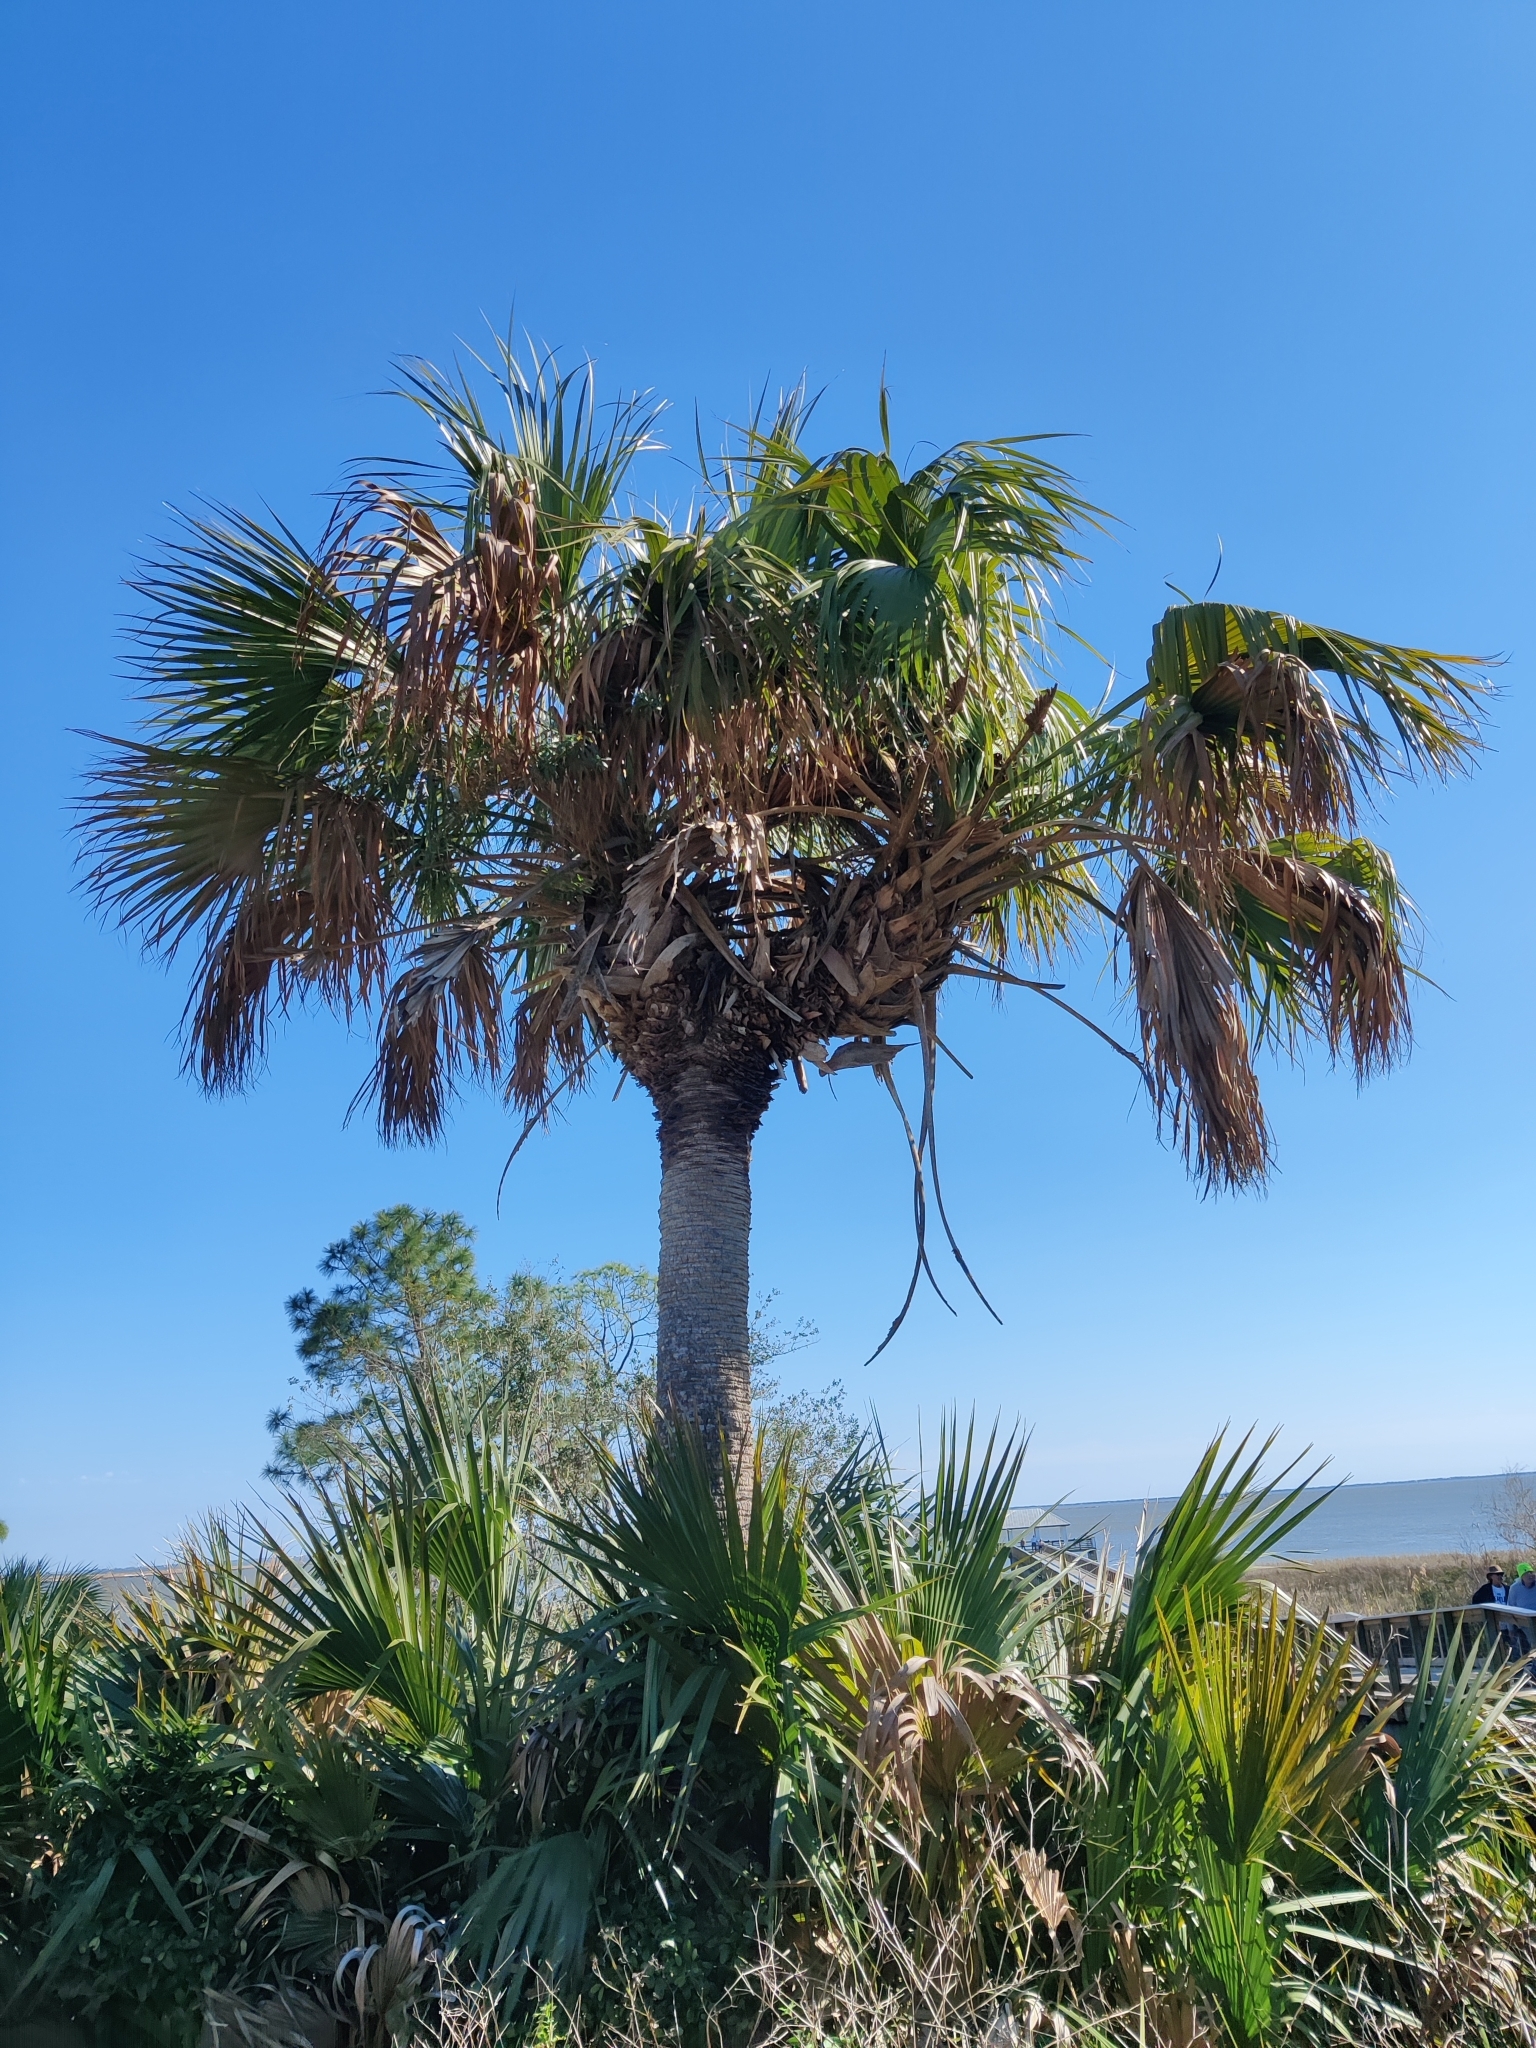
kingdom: Plantae
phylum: Tracheophyta
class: Liliopsida
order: Arecales
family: Arecaceae
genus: Sabal
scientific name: Sabal palmetto
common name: Blue palmetto
